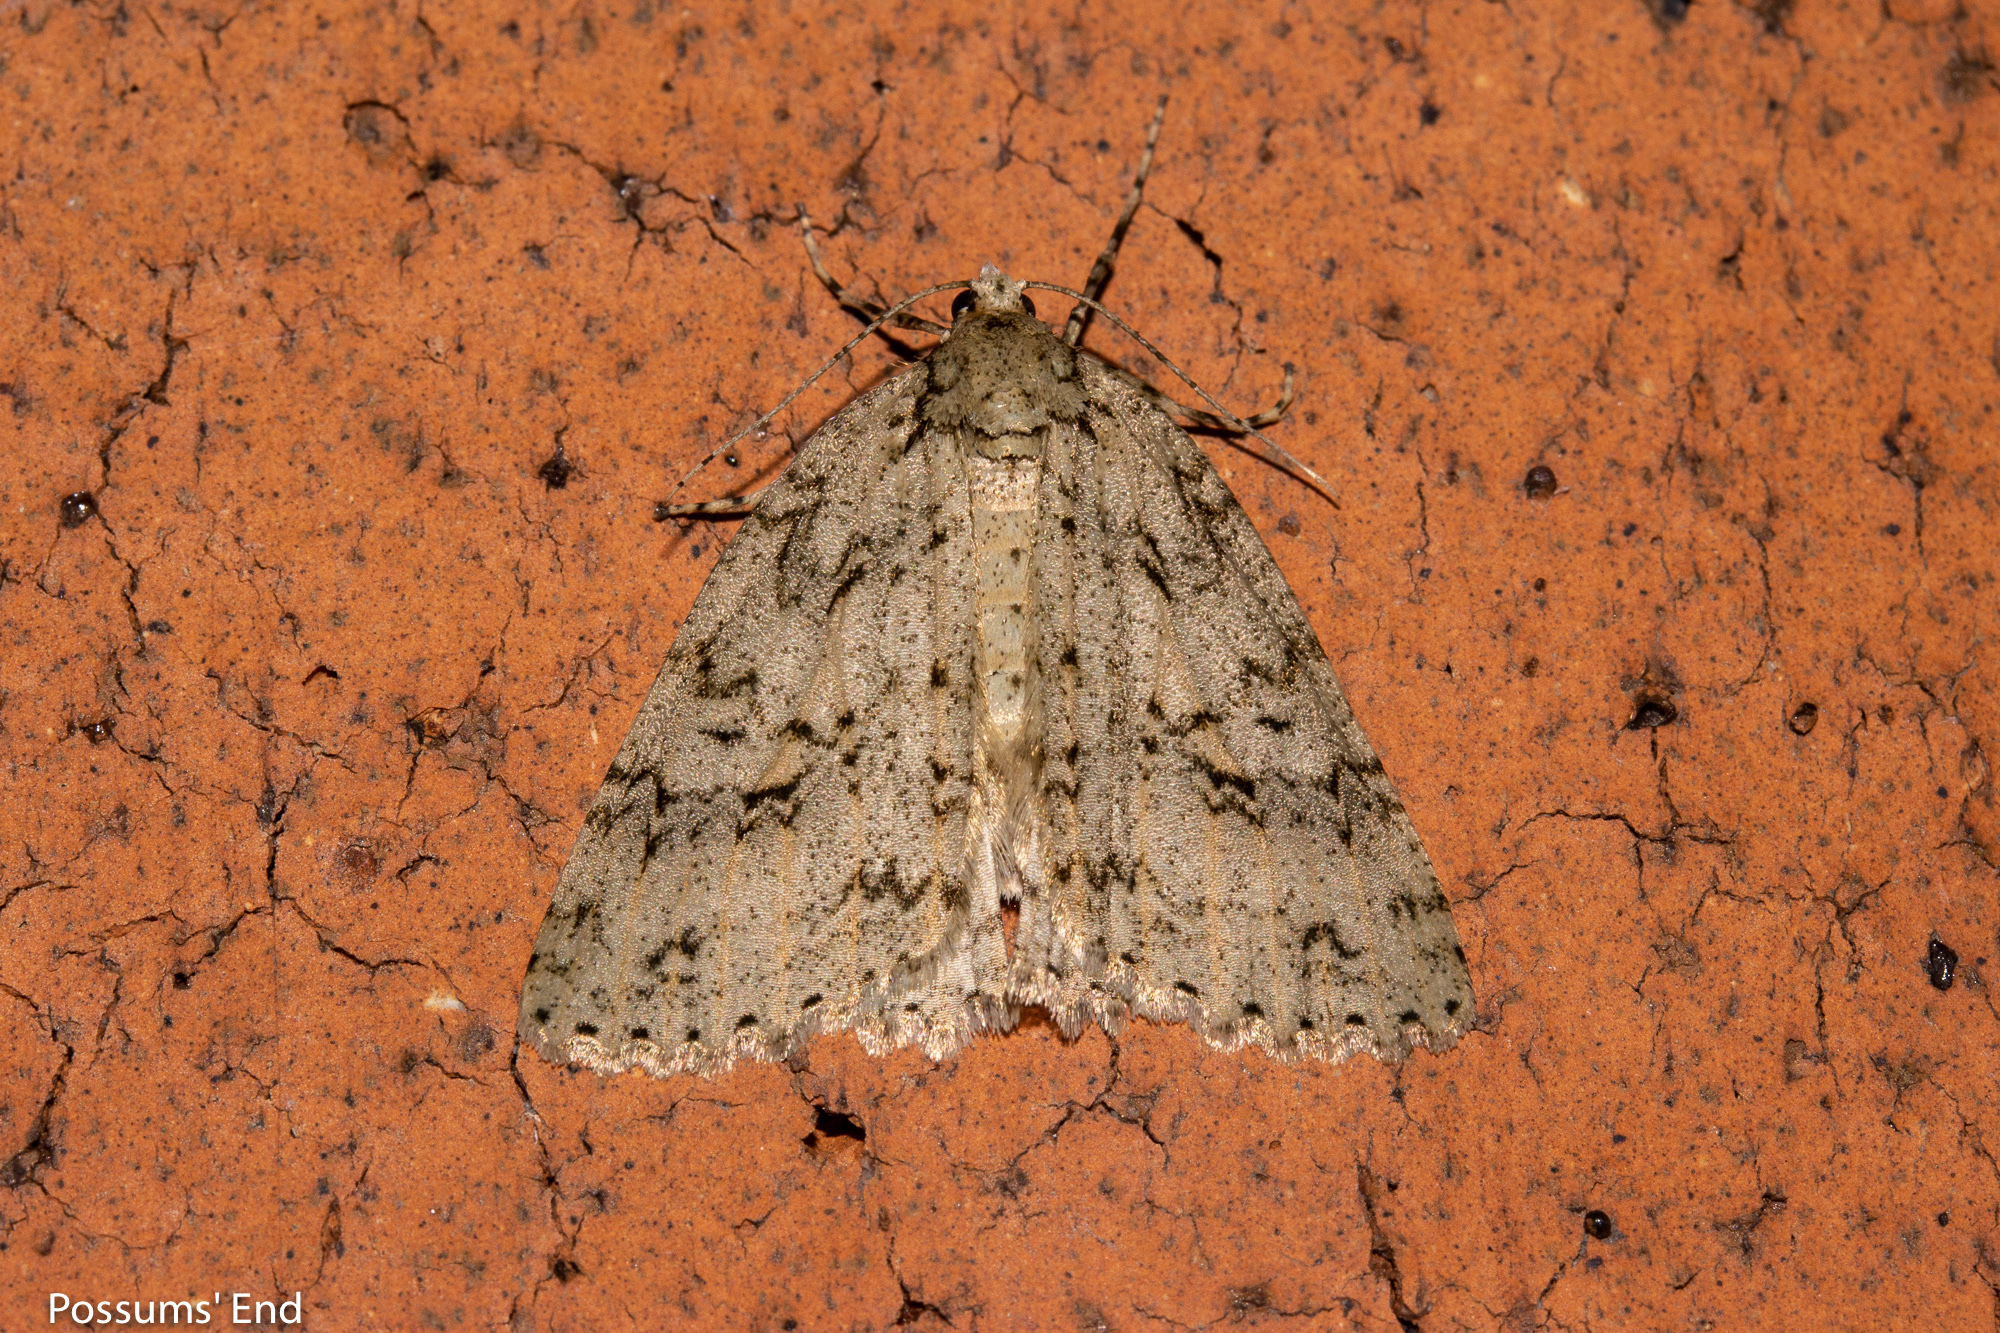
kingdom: Animalia
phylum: Arthropoda
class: Insecta
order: Lepidoptera
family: Geometridae
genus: Pseudocoremia
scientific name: Pseudocoremia rudisata
